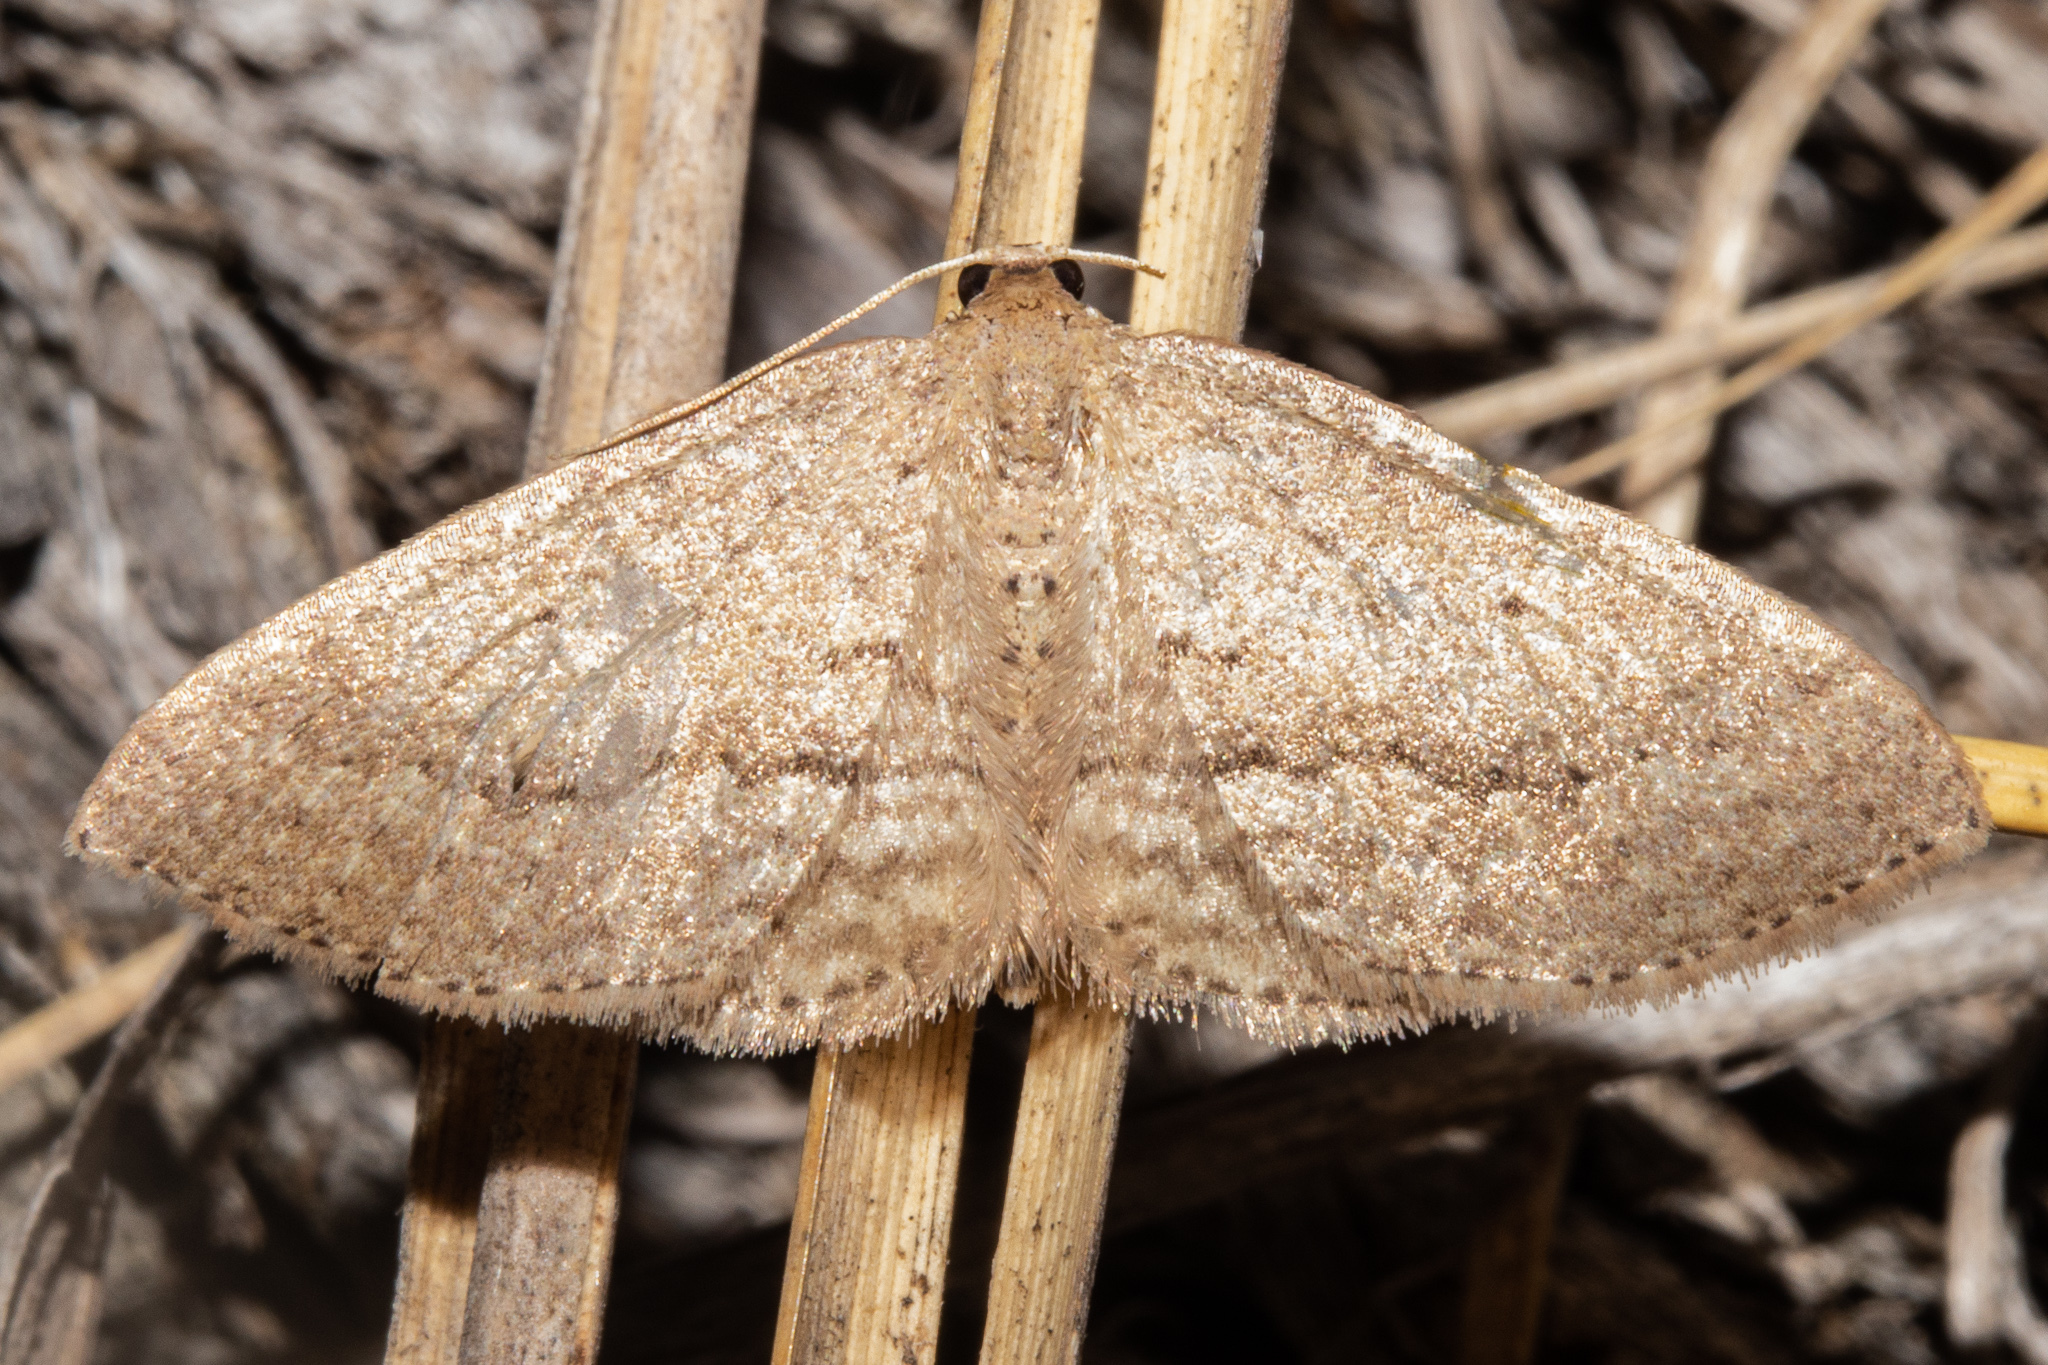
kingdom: Animalia
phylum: Arthropoda
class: Insecta
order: Lepidoptera
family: Geometridae
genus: Poecilasthena
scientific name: Poecilasthena schistaria
